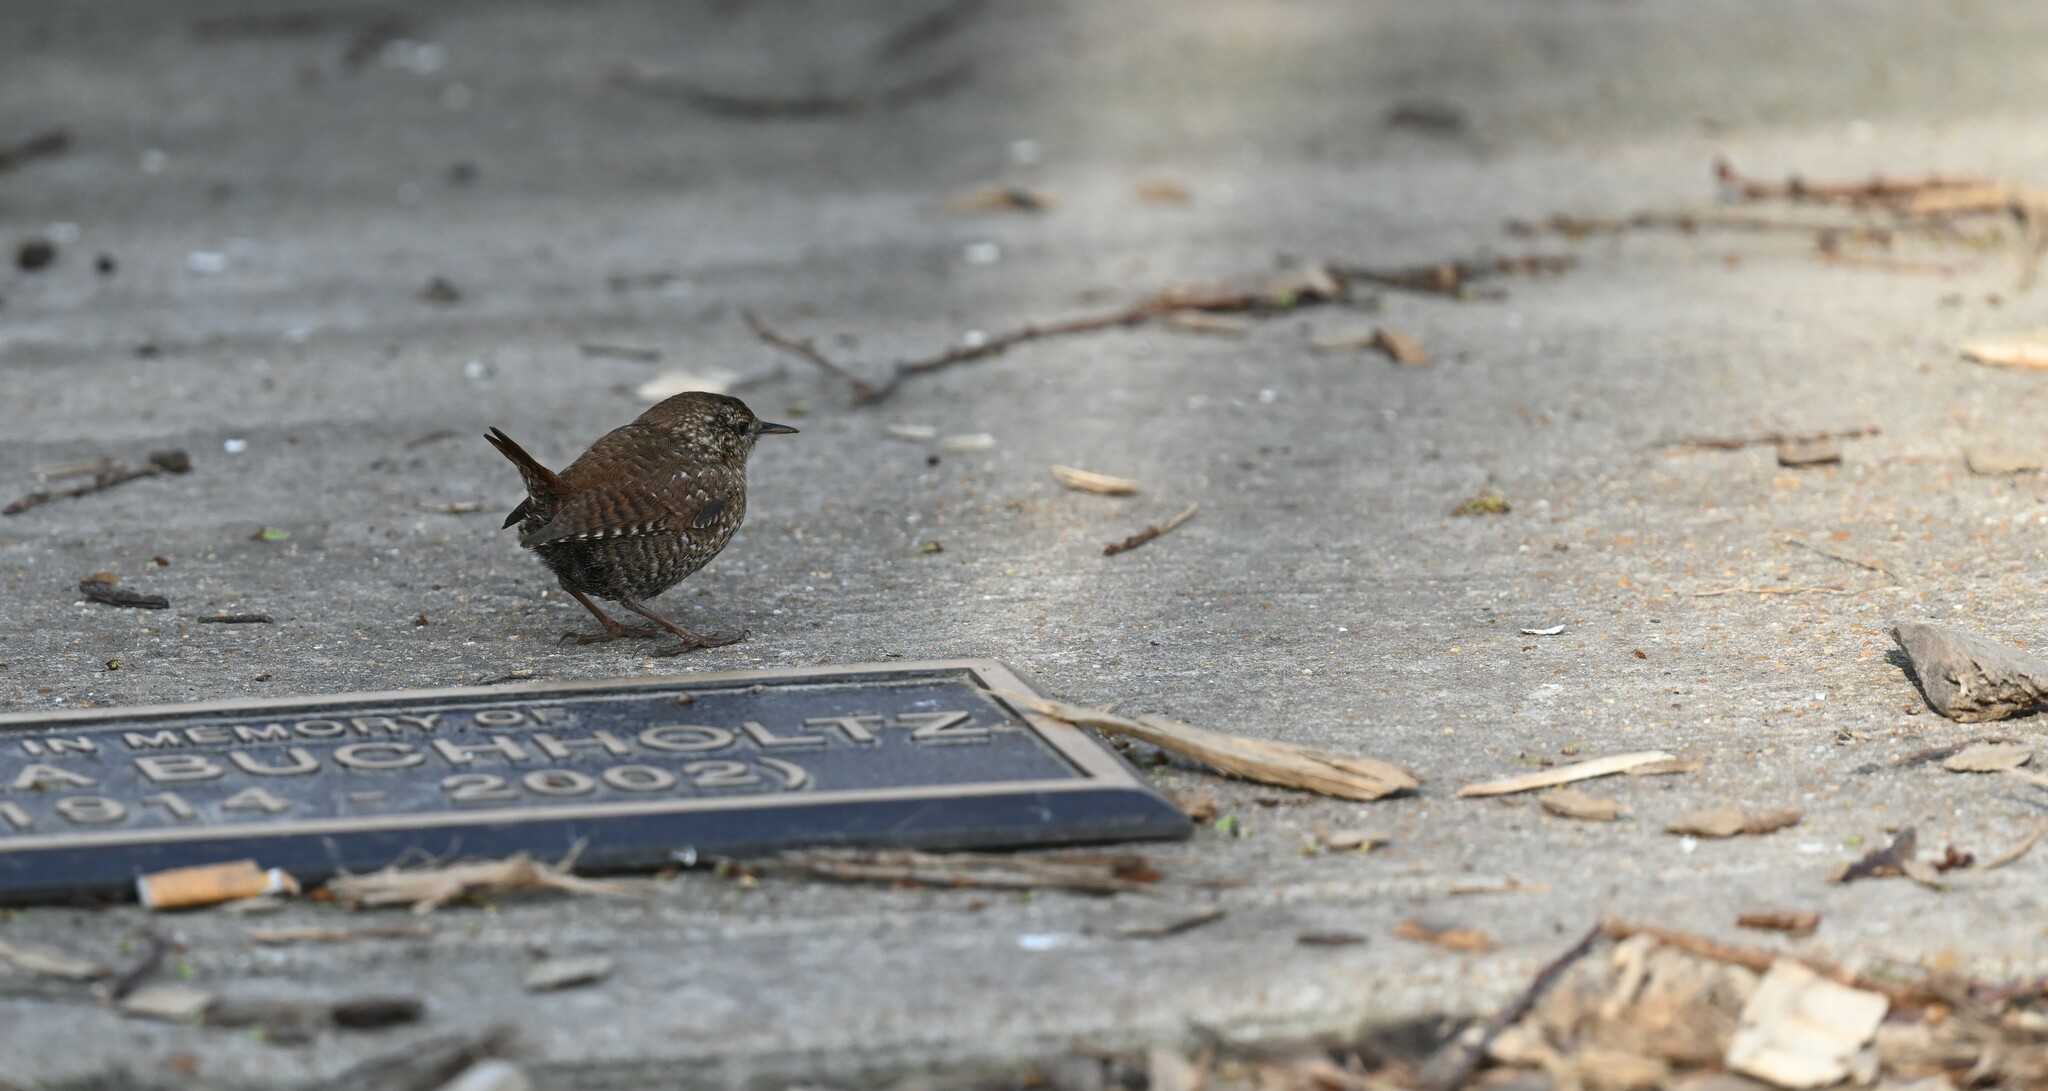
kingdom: Animalia
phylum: Chordata
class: Aves
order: Passeriformes
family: Troglodytidae
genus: Troglodytes
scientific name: Troglodytes hiemalis
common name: Winter wren
